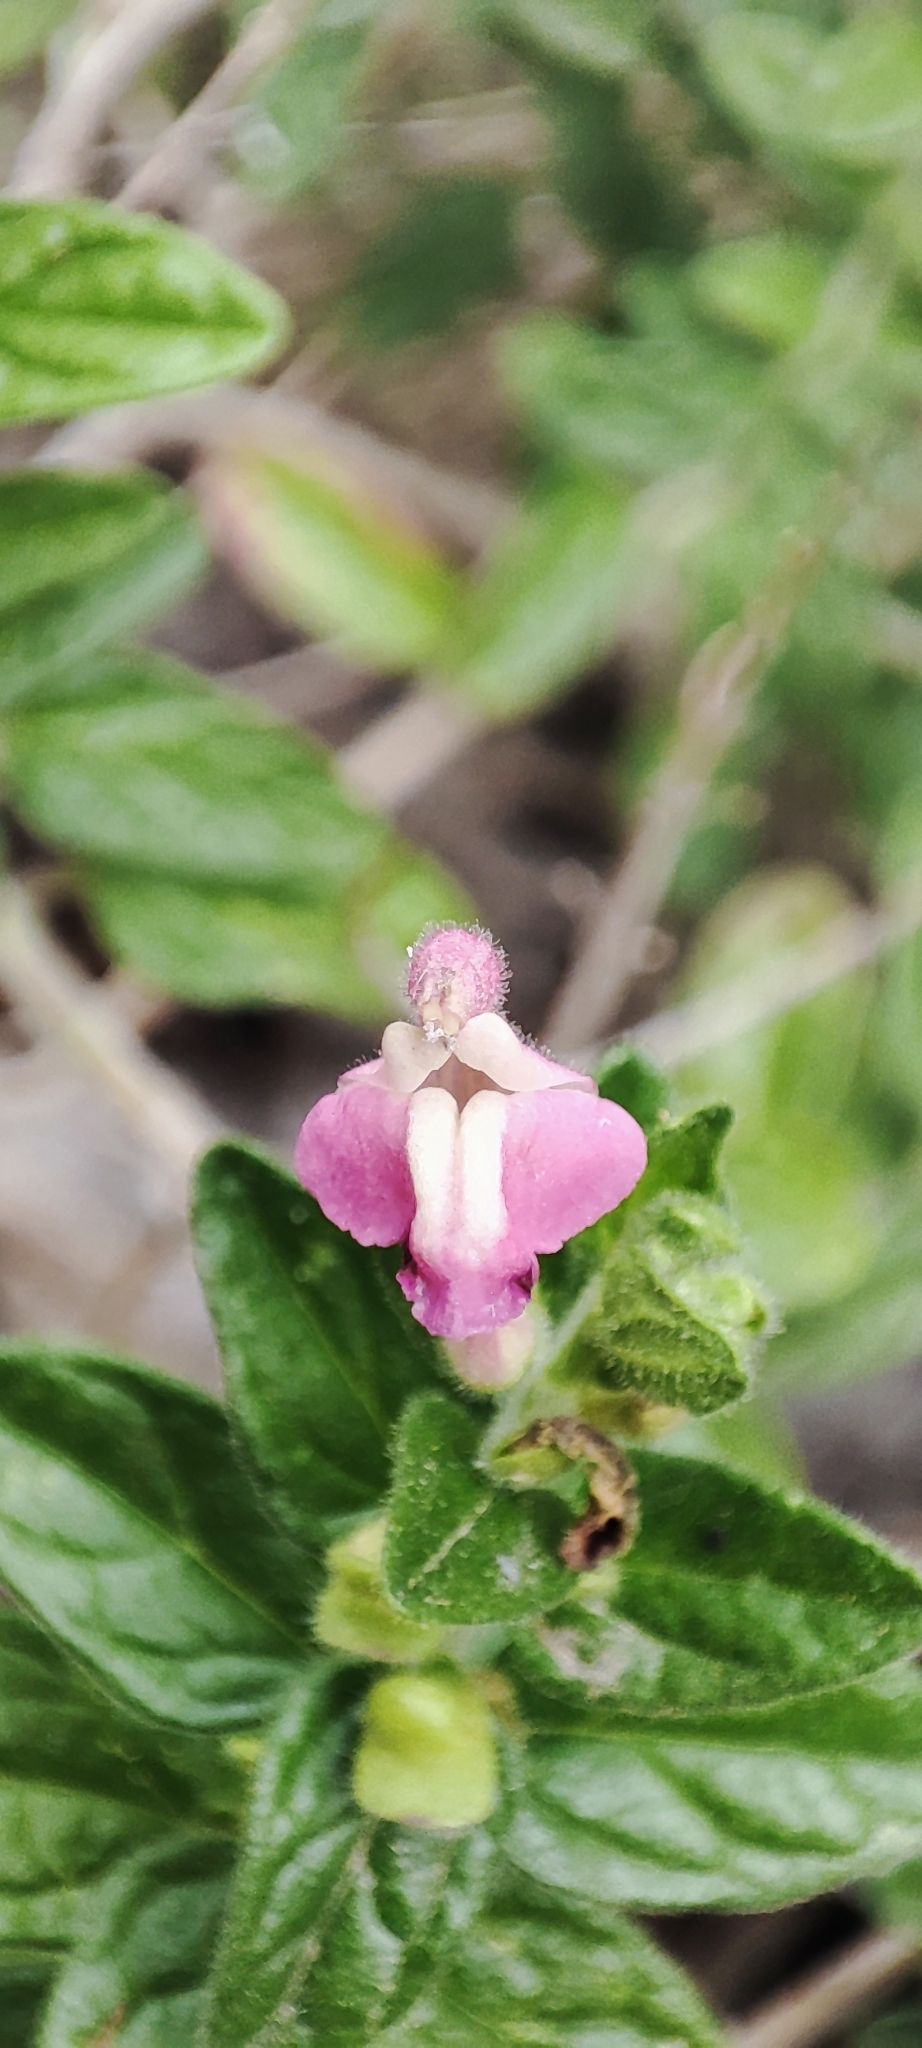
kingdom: Plantae
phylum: Tracheophyta
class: Magnoliopsida
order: Lamiales
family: Lamiaceae
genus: Scutellaria
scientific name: Scutellaria suffrutescens
